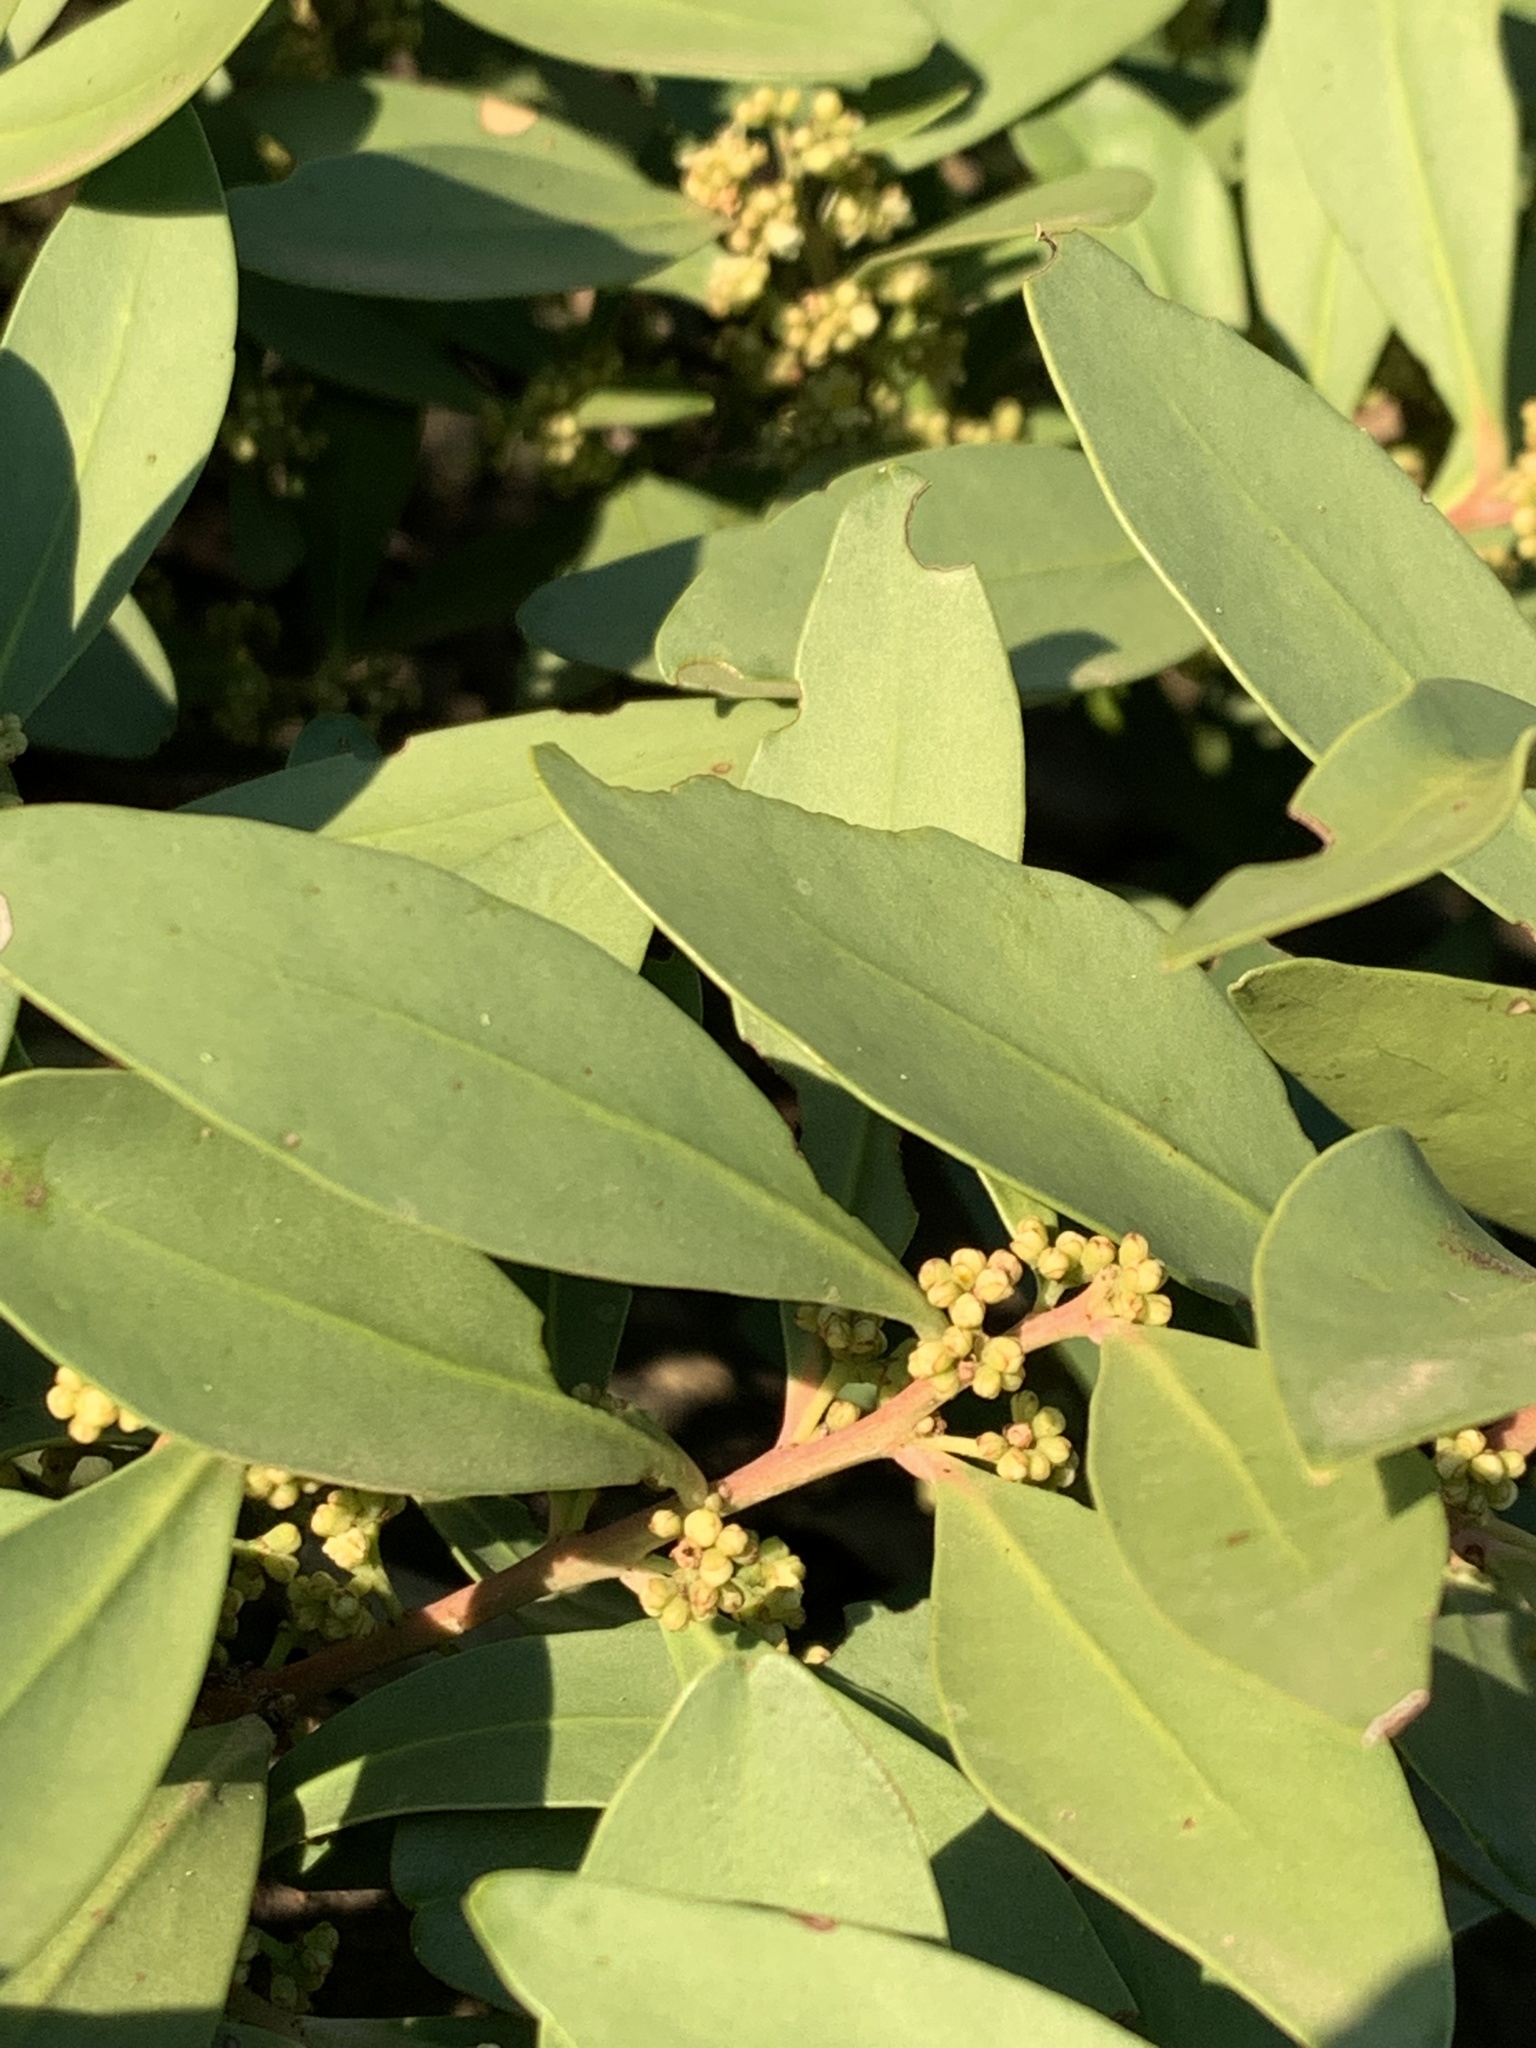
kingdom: Plantae
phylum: Tracheophyta
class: Magnoliopsida
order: Celastrales
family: Celastraceae
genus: Gymnosporia
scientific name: Gymnosporia laurina
